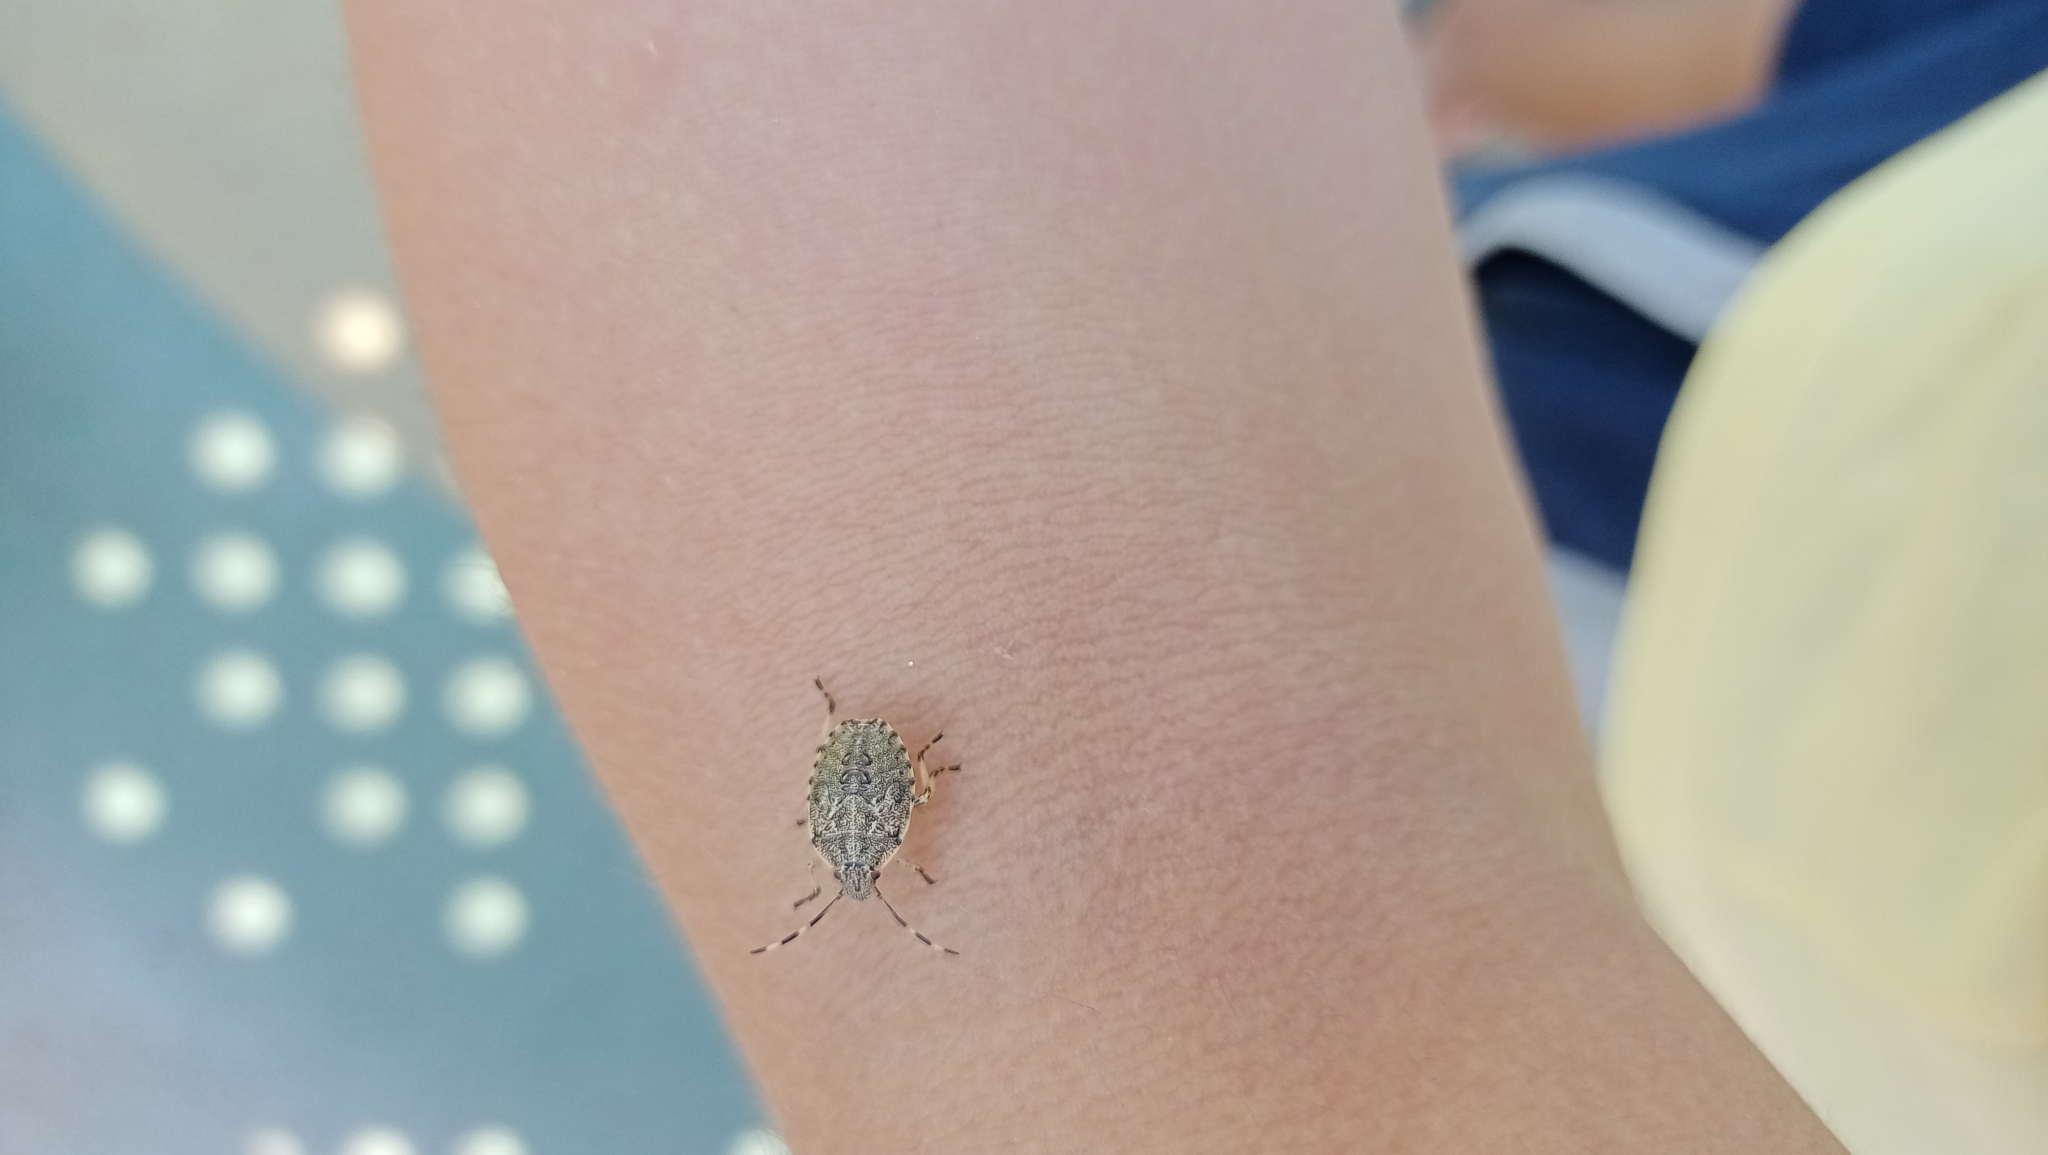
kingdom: Animalia
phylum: Arthropoda
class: Insecta
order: Hemiptera
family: Pentatomidae
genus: Rhaphigaster
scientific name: Rhaphigaster nebulosa
